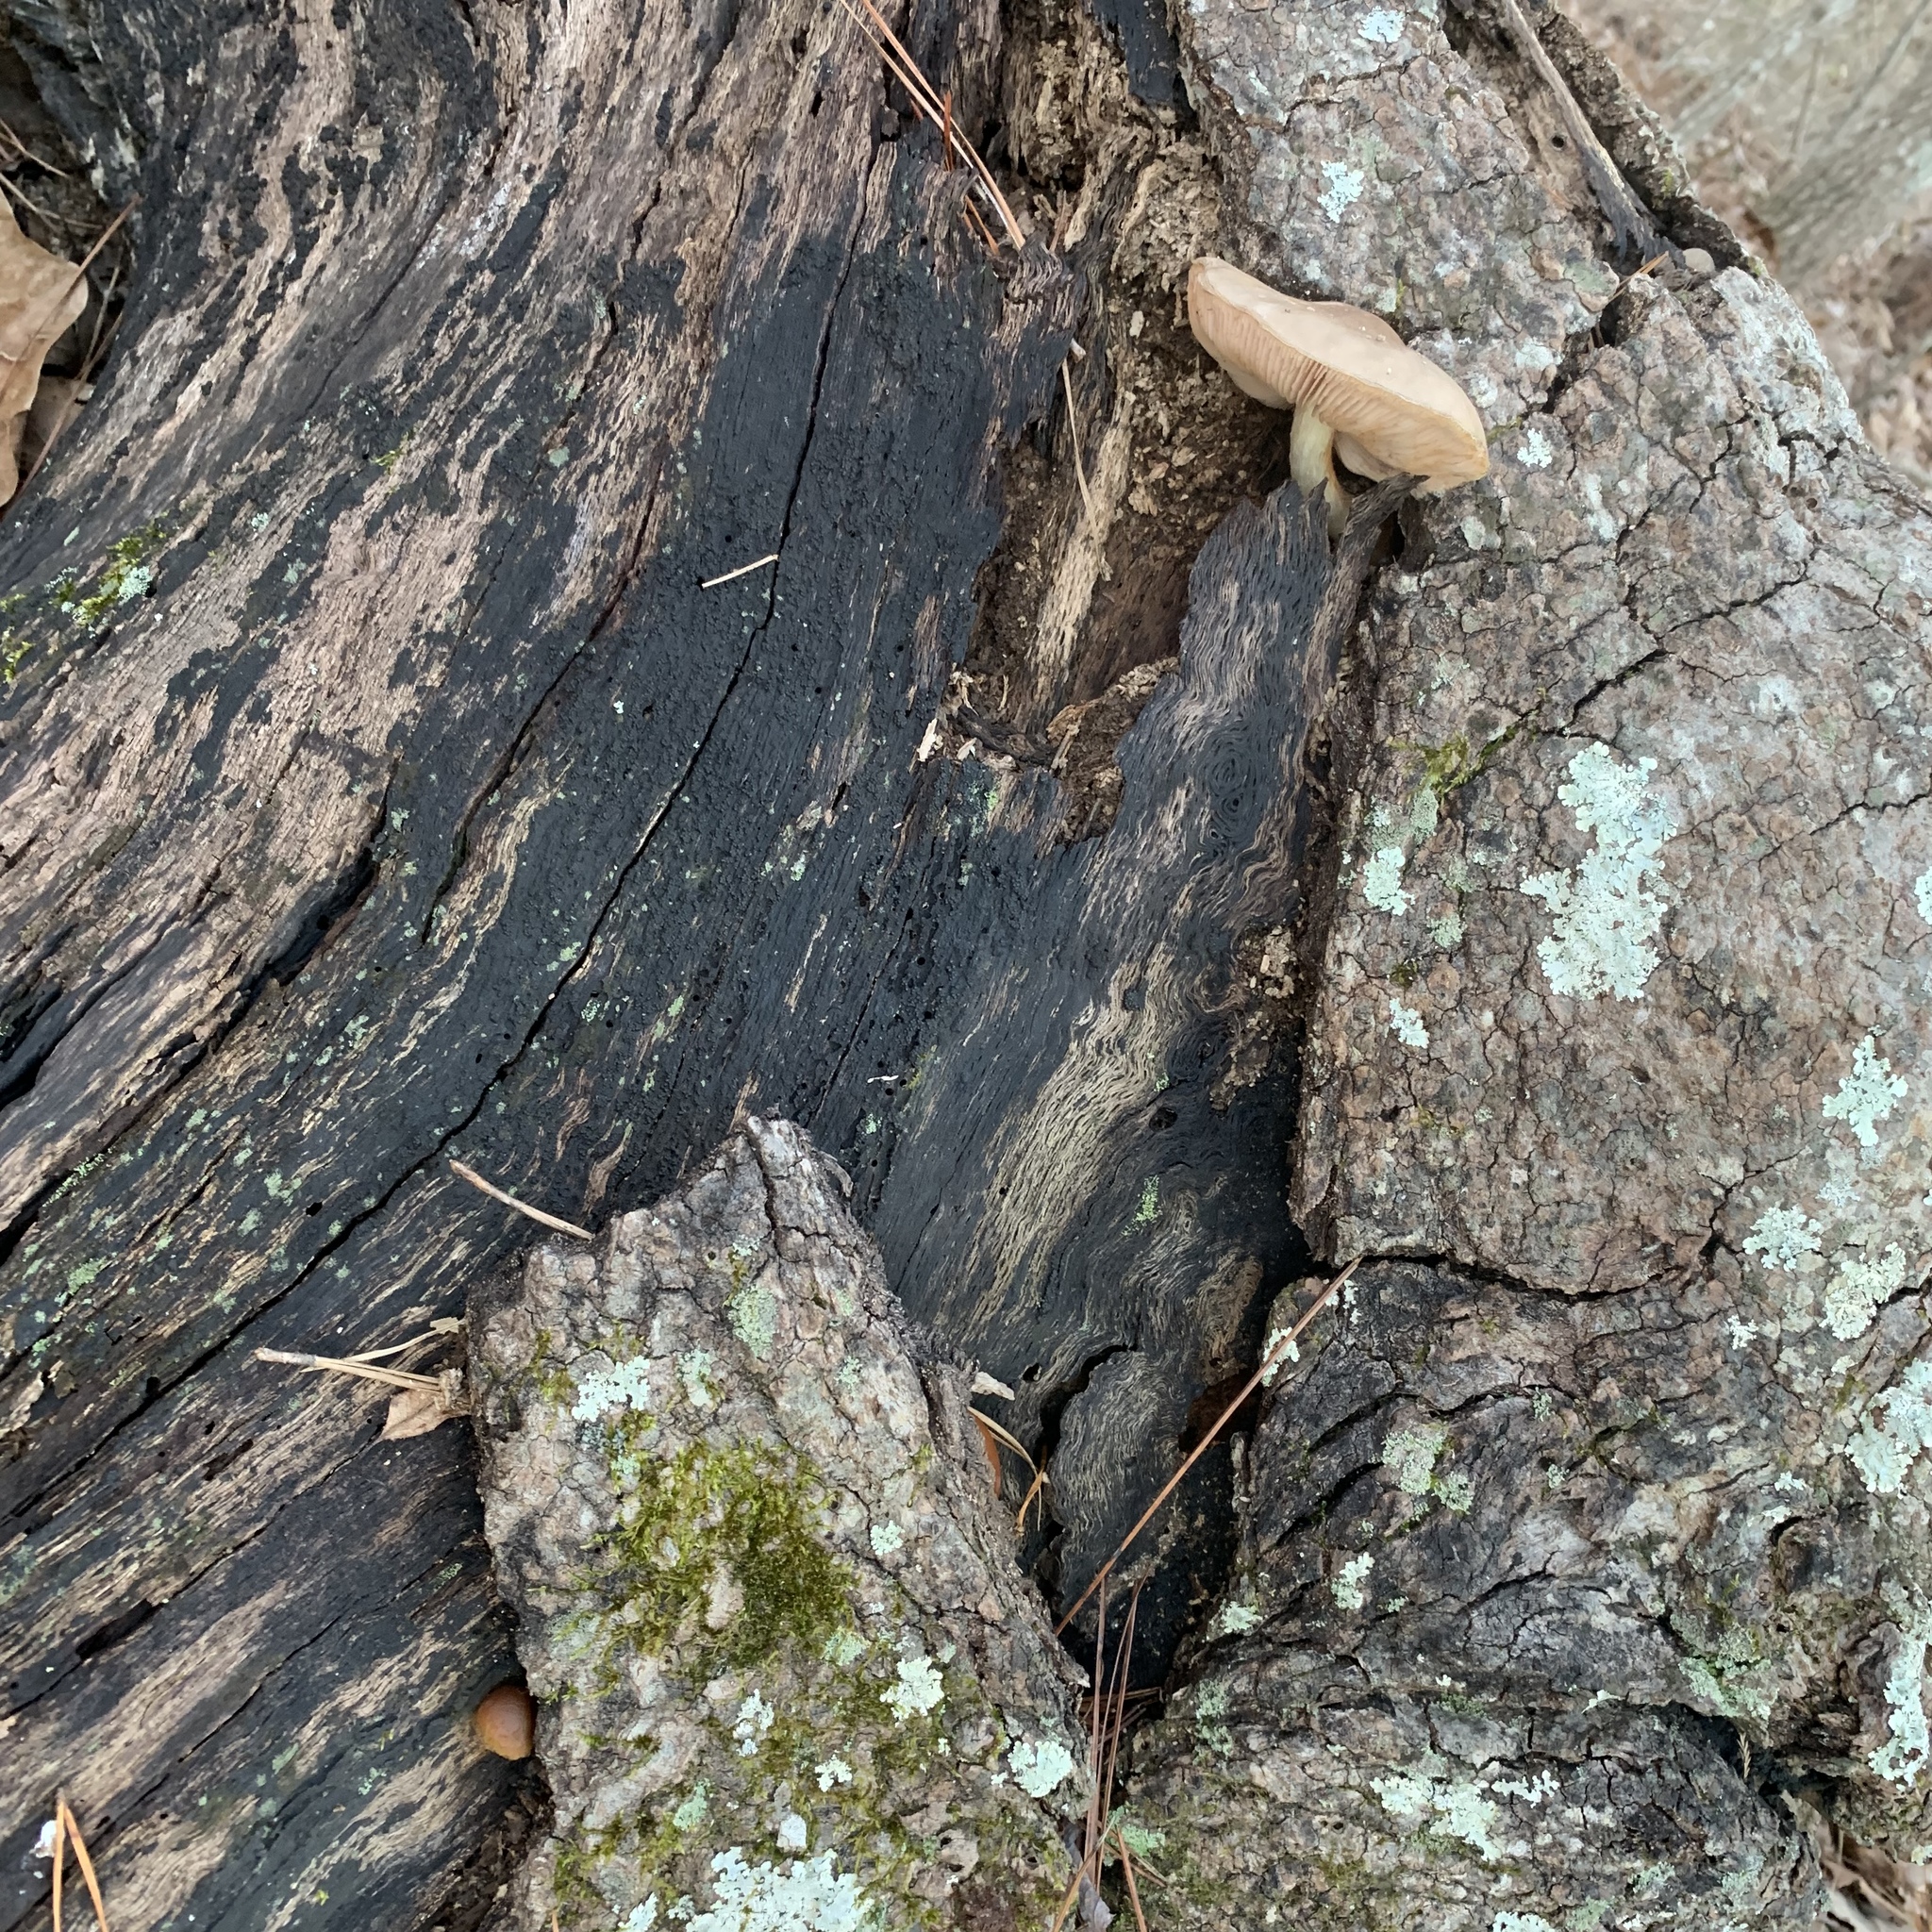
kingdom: Fungi
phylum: Basidiomycota
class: Agaricomycetes
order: Agaricales
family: Pluteaceae
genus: Pluteus
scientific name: Pluteus cervinus
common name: Deer shield
